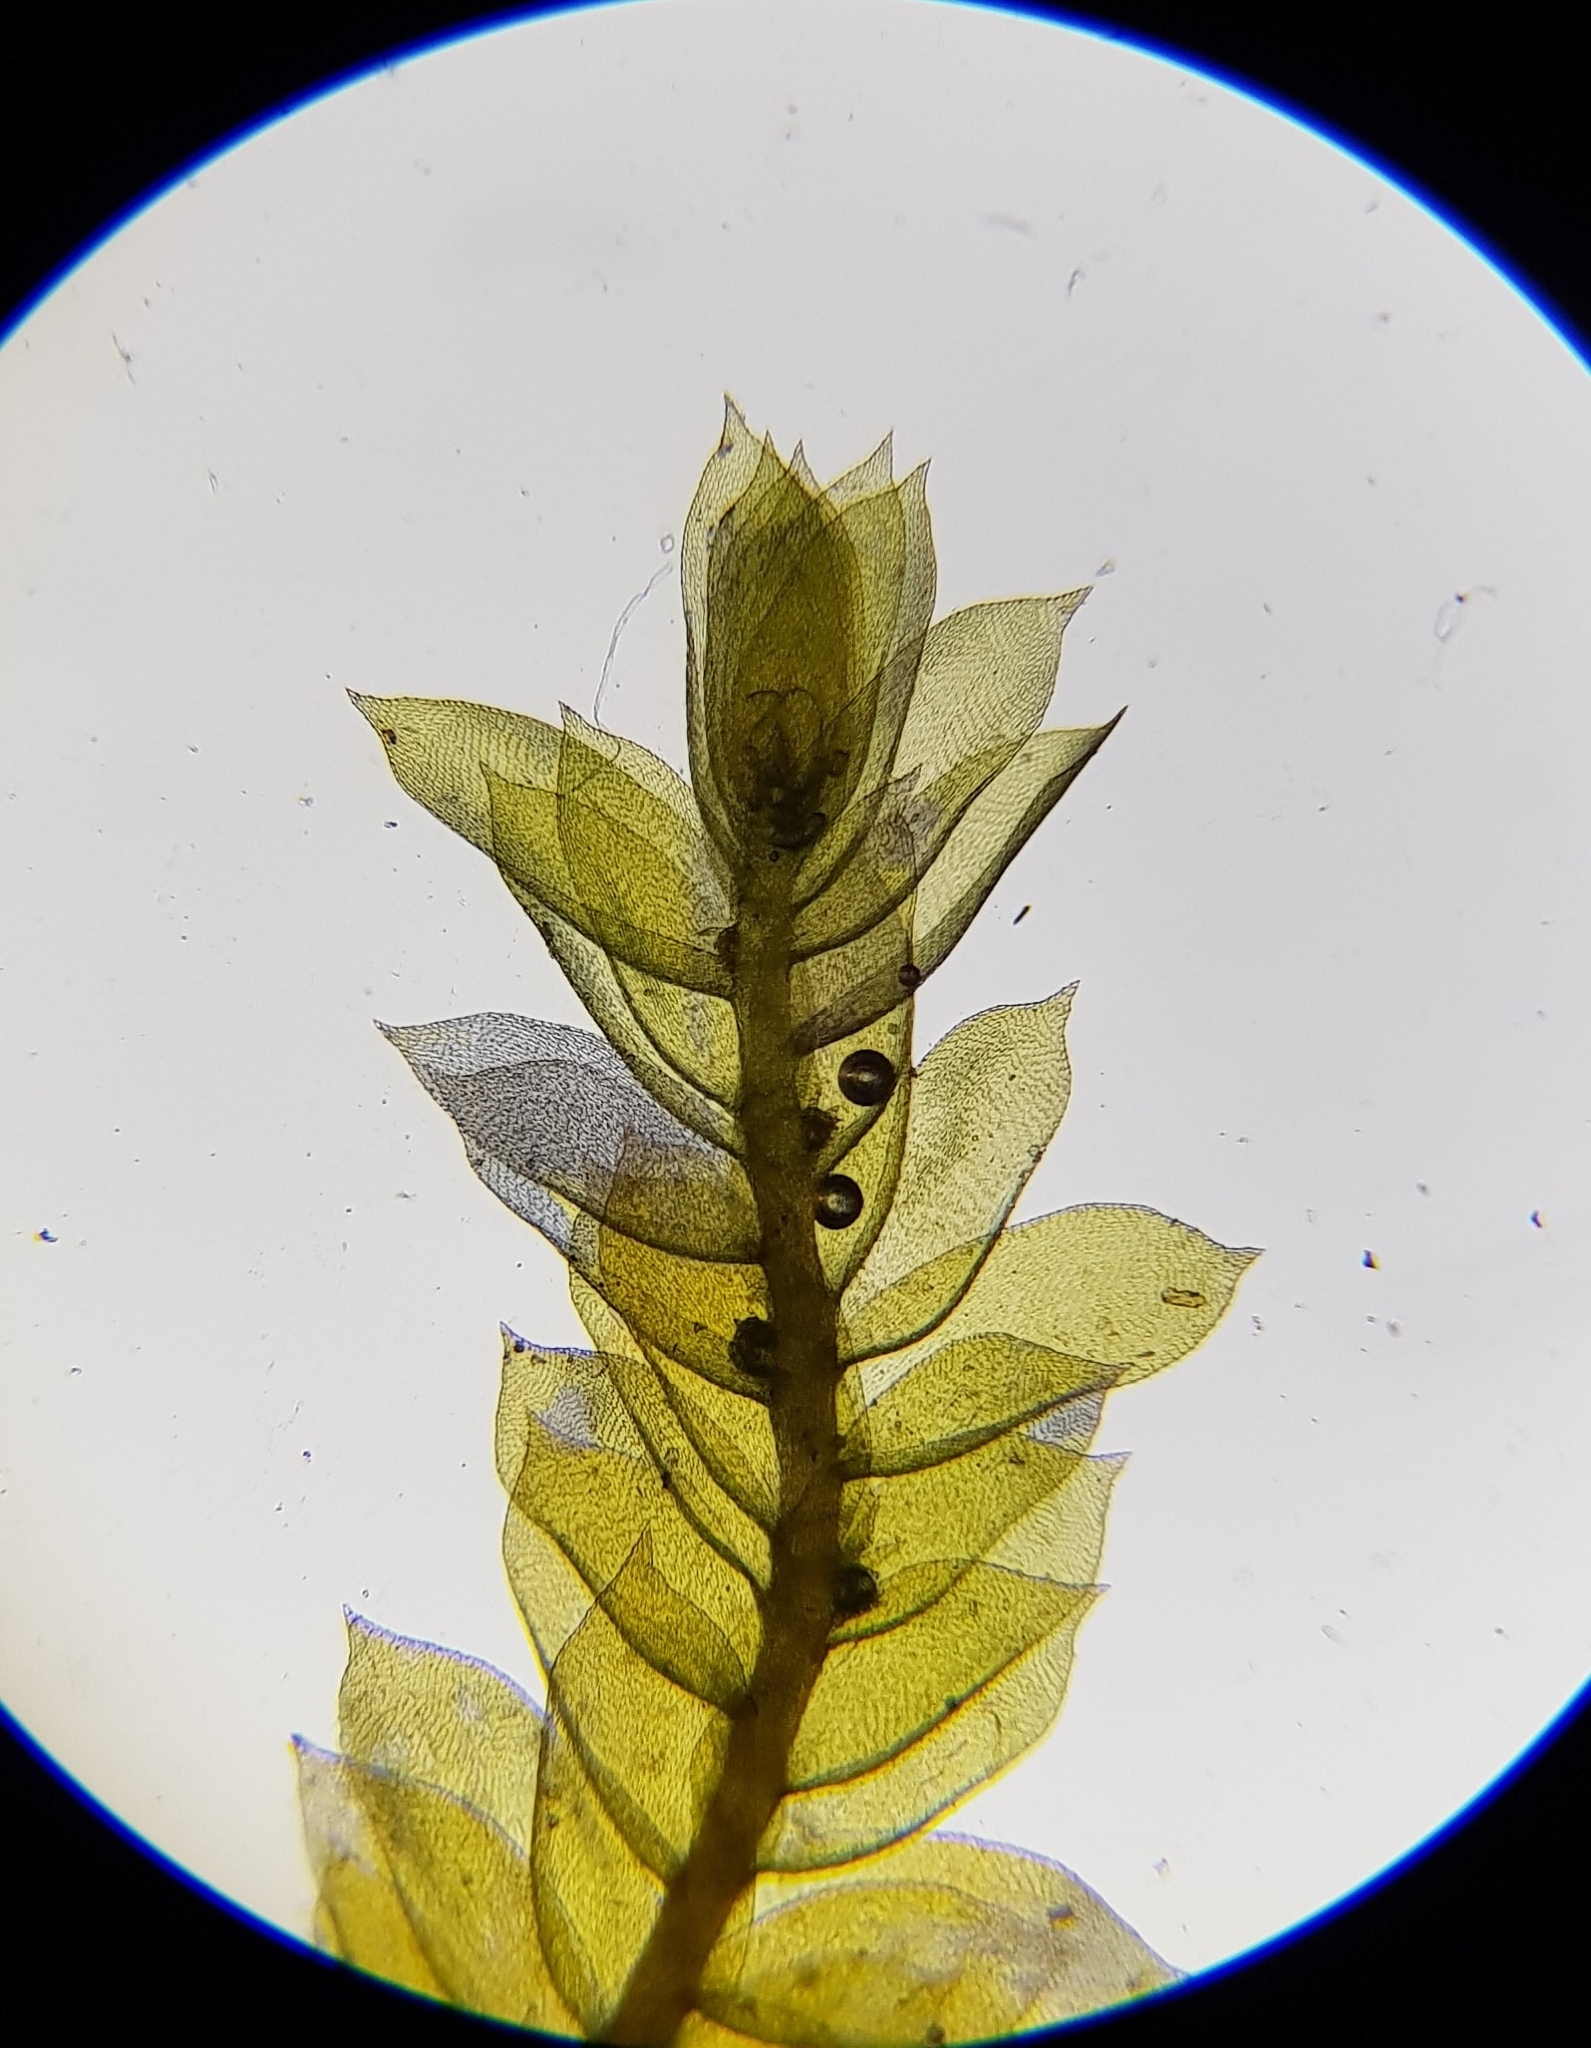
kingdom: Plantae
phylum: Bryophyta
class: Bryopsida
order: Hypnales
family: Neckeraceae
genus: Alleniella
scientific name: Alleniella complanata
